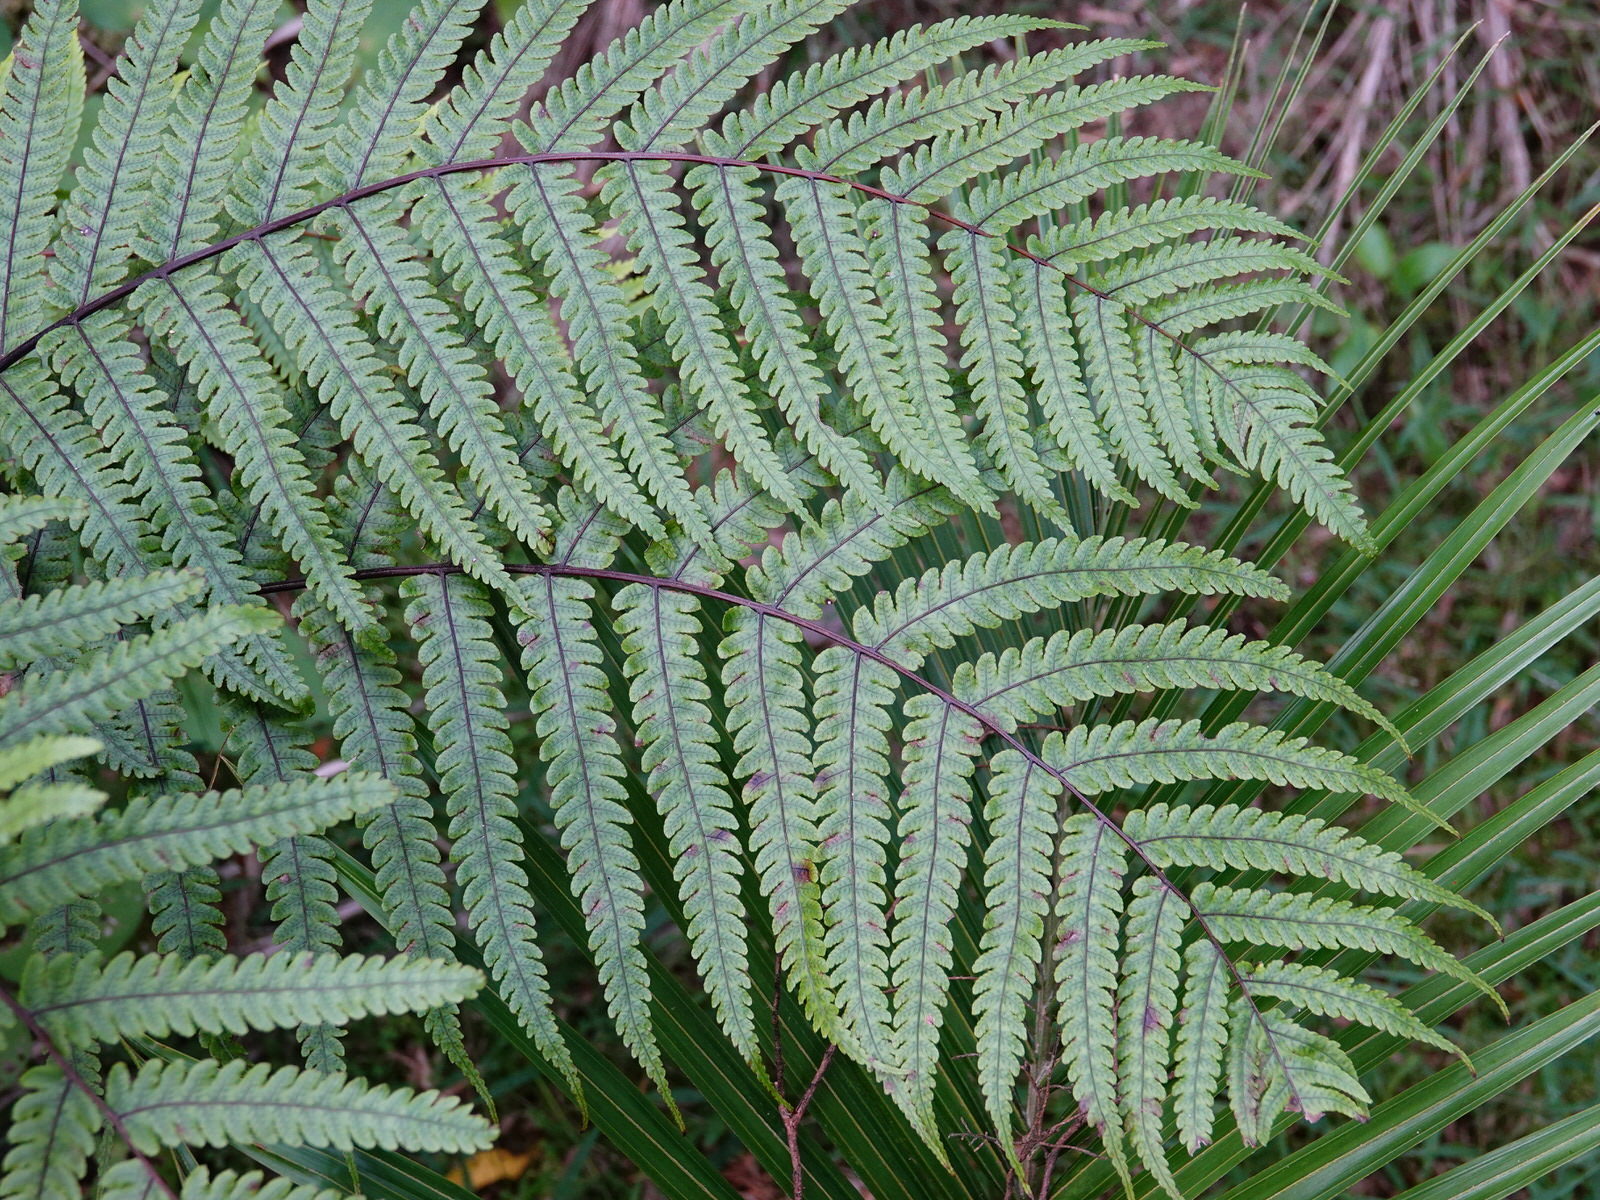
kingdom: Plantae
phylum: Tracheophyta
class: Polypodiopsida
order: Polypodiales
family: Thelypteridaceae
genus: Pakau
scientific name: Pakau pennigera
